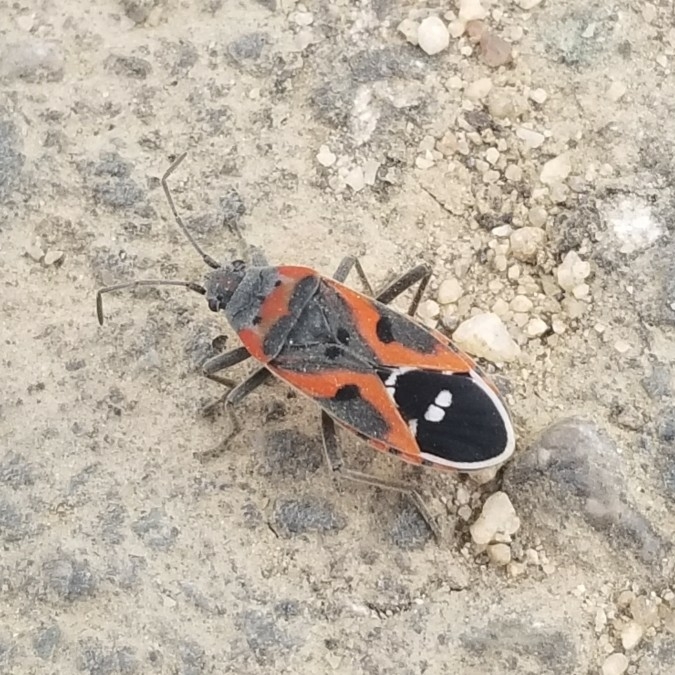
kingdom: Animalia
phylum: Arthropoda
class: Insecta
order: Hemiptera
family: Lygaeidae
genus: Lygaeus
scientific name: Lygaeus kalmii
